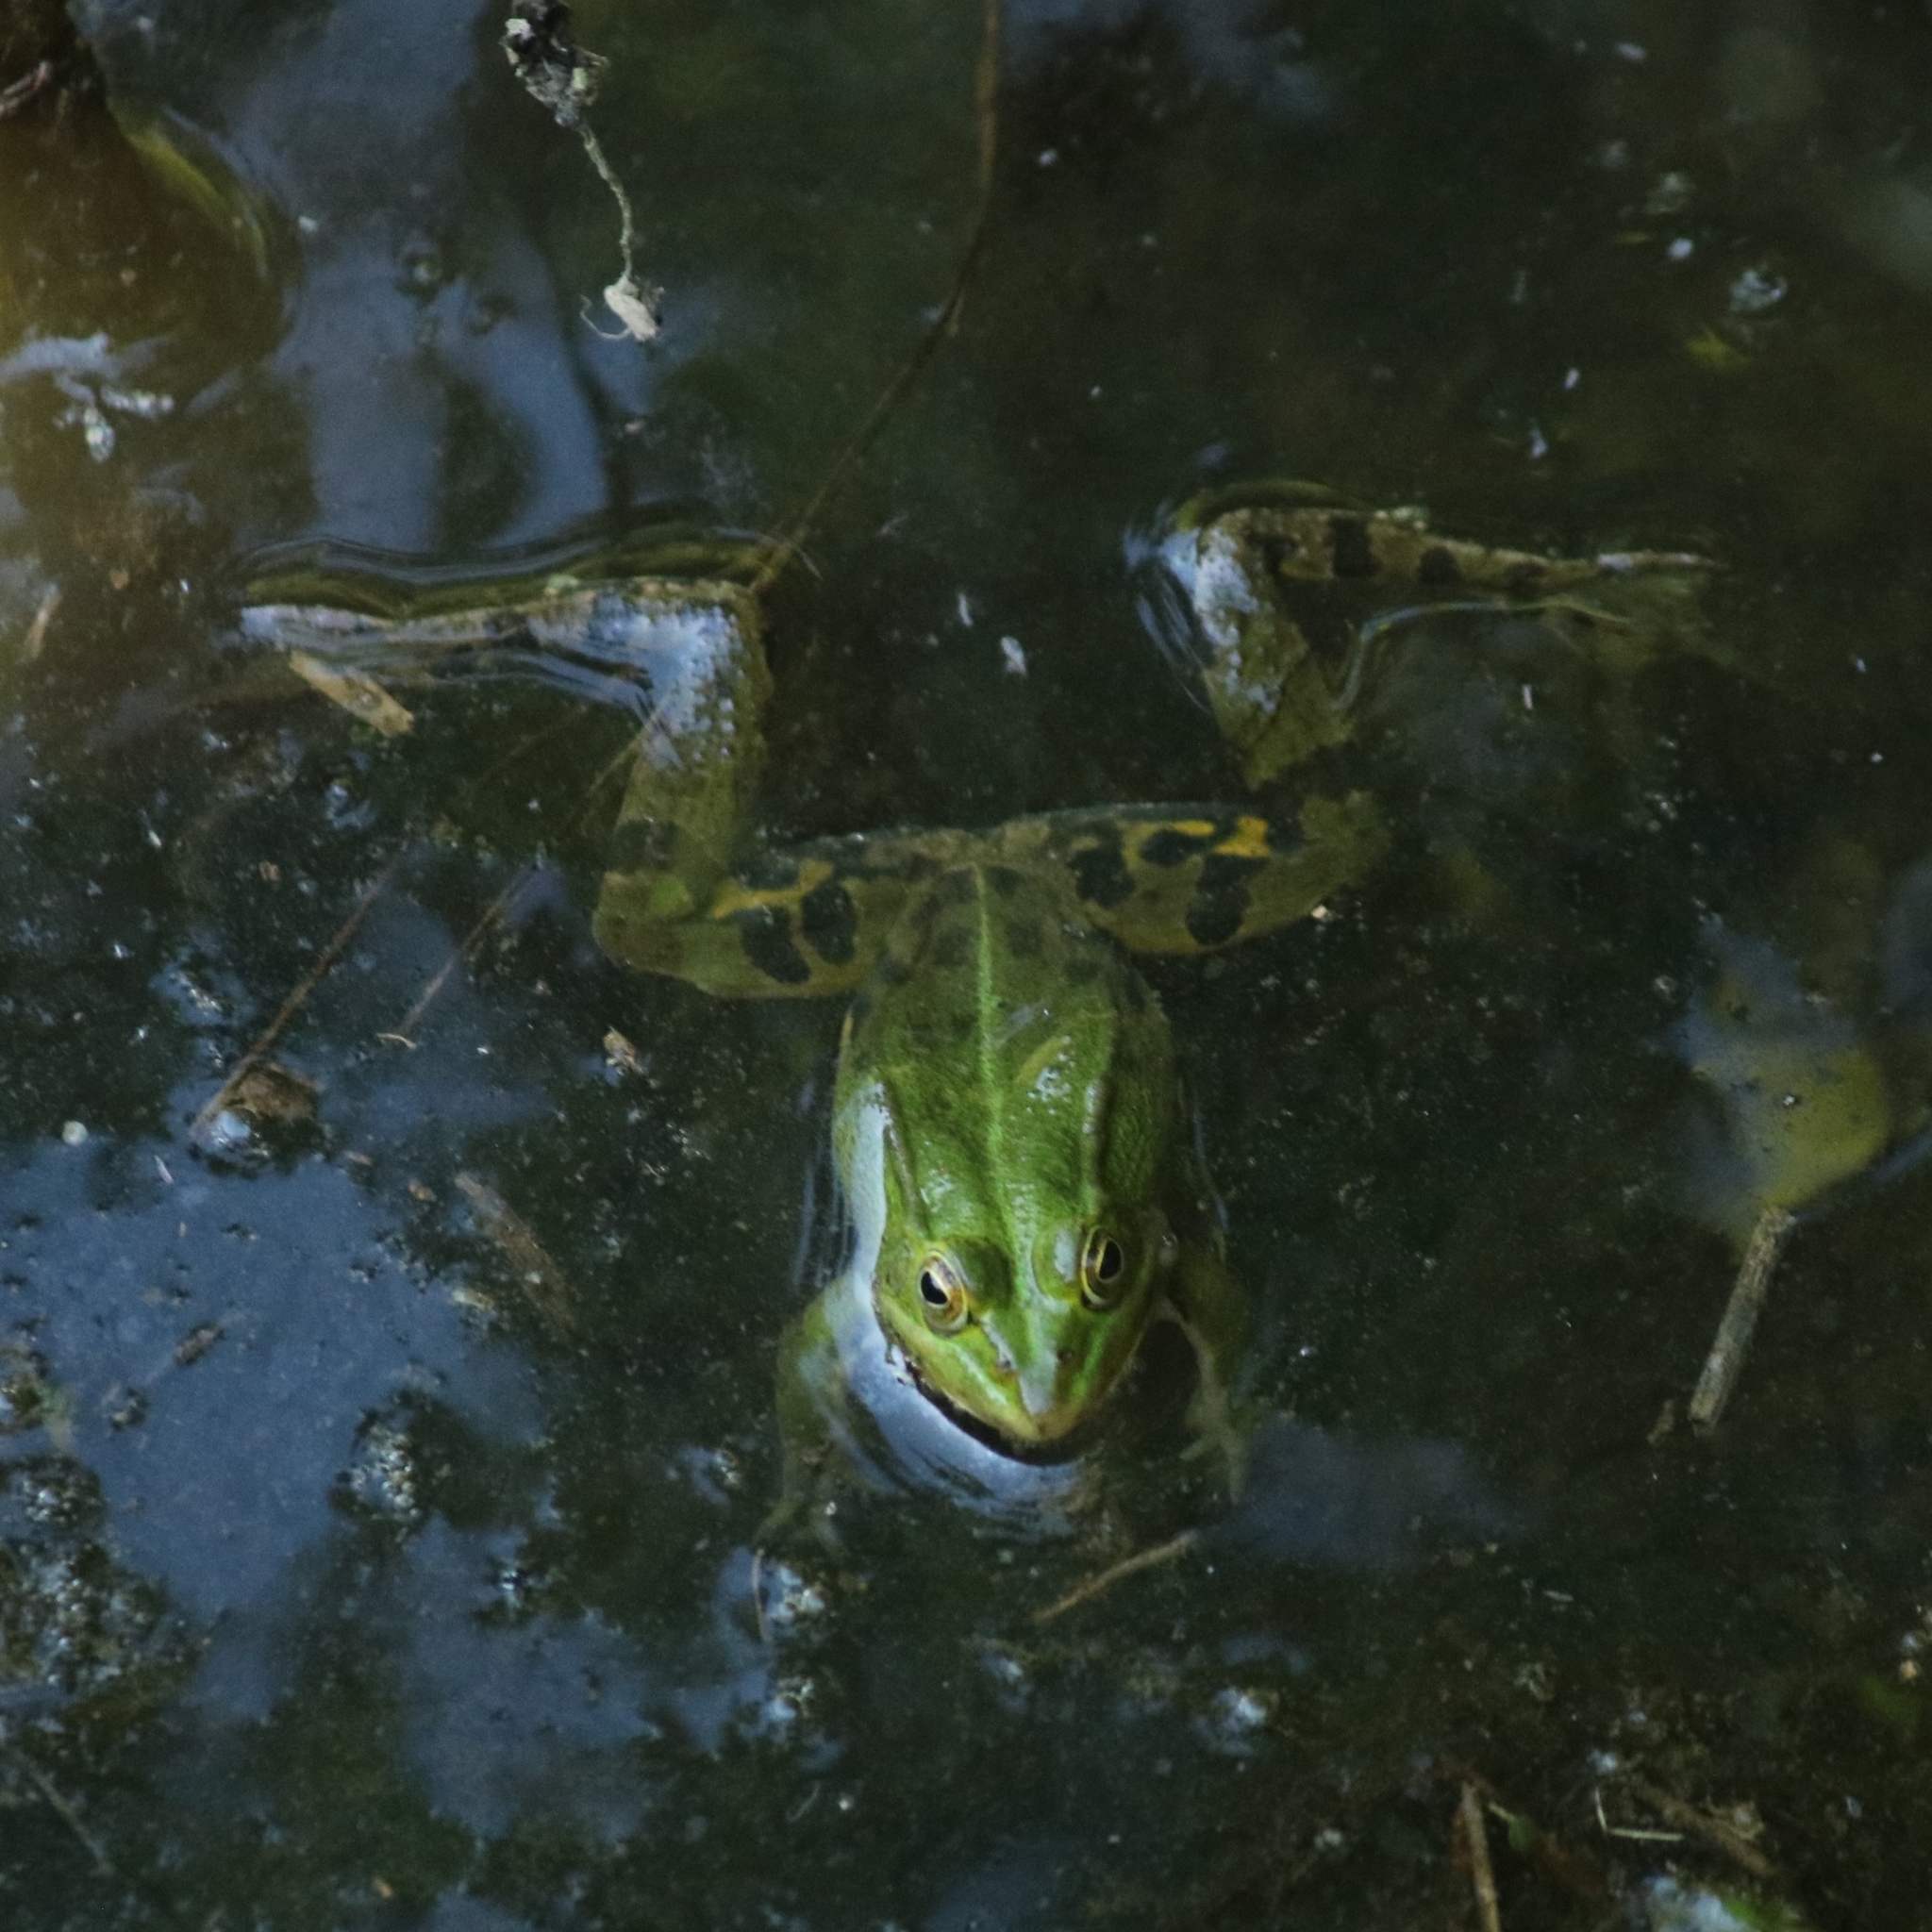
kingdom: Animalia
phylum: Chordata
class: Amphibia
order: Anura
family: Ranidae
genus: Pelophylax
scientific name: Pelophylax
